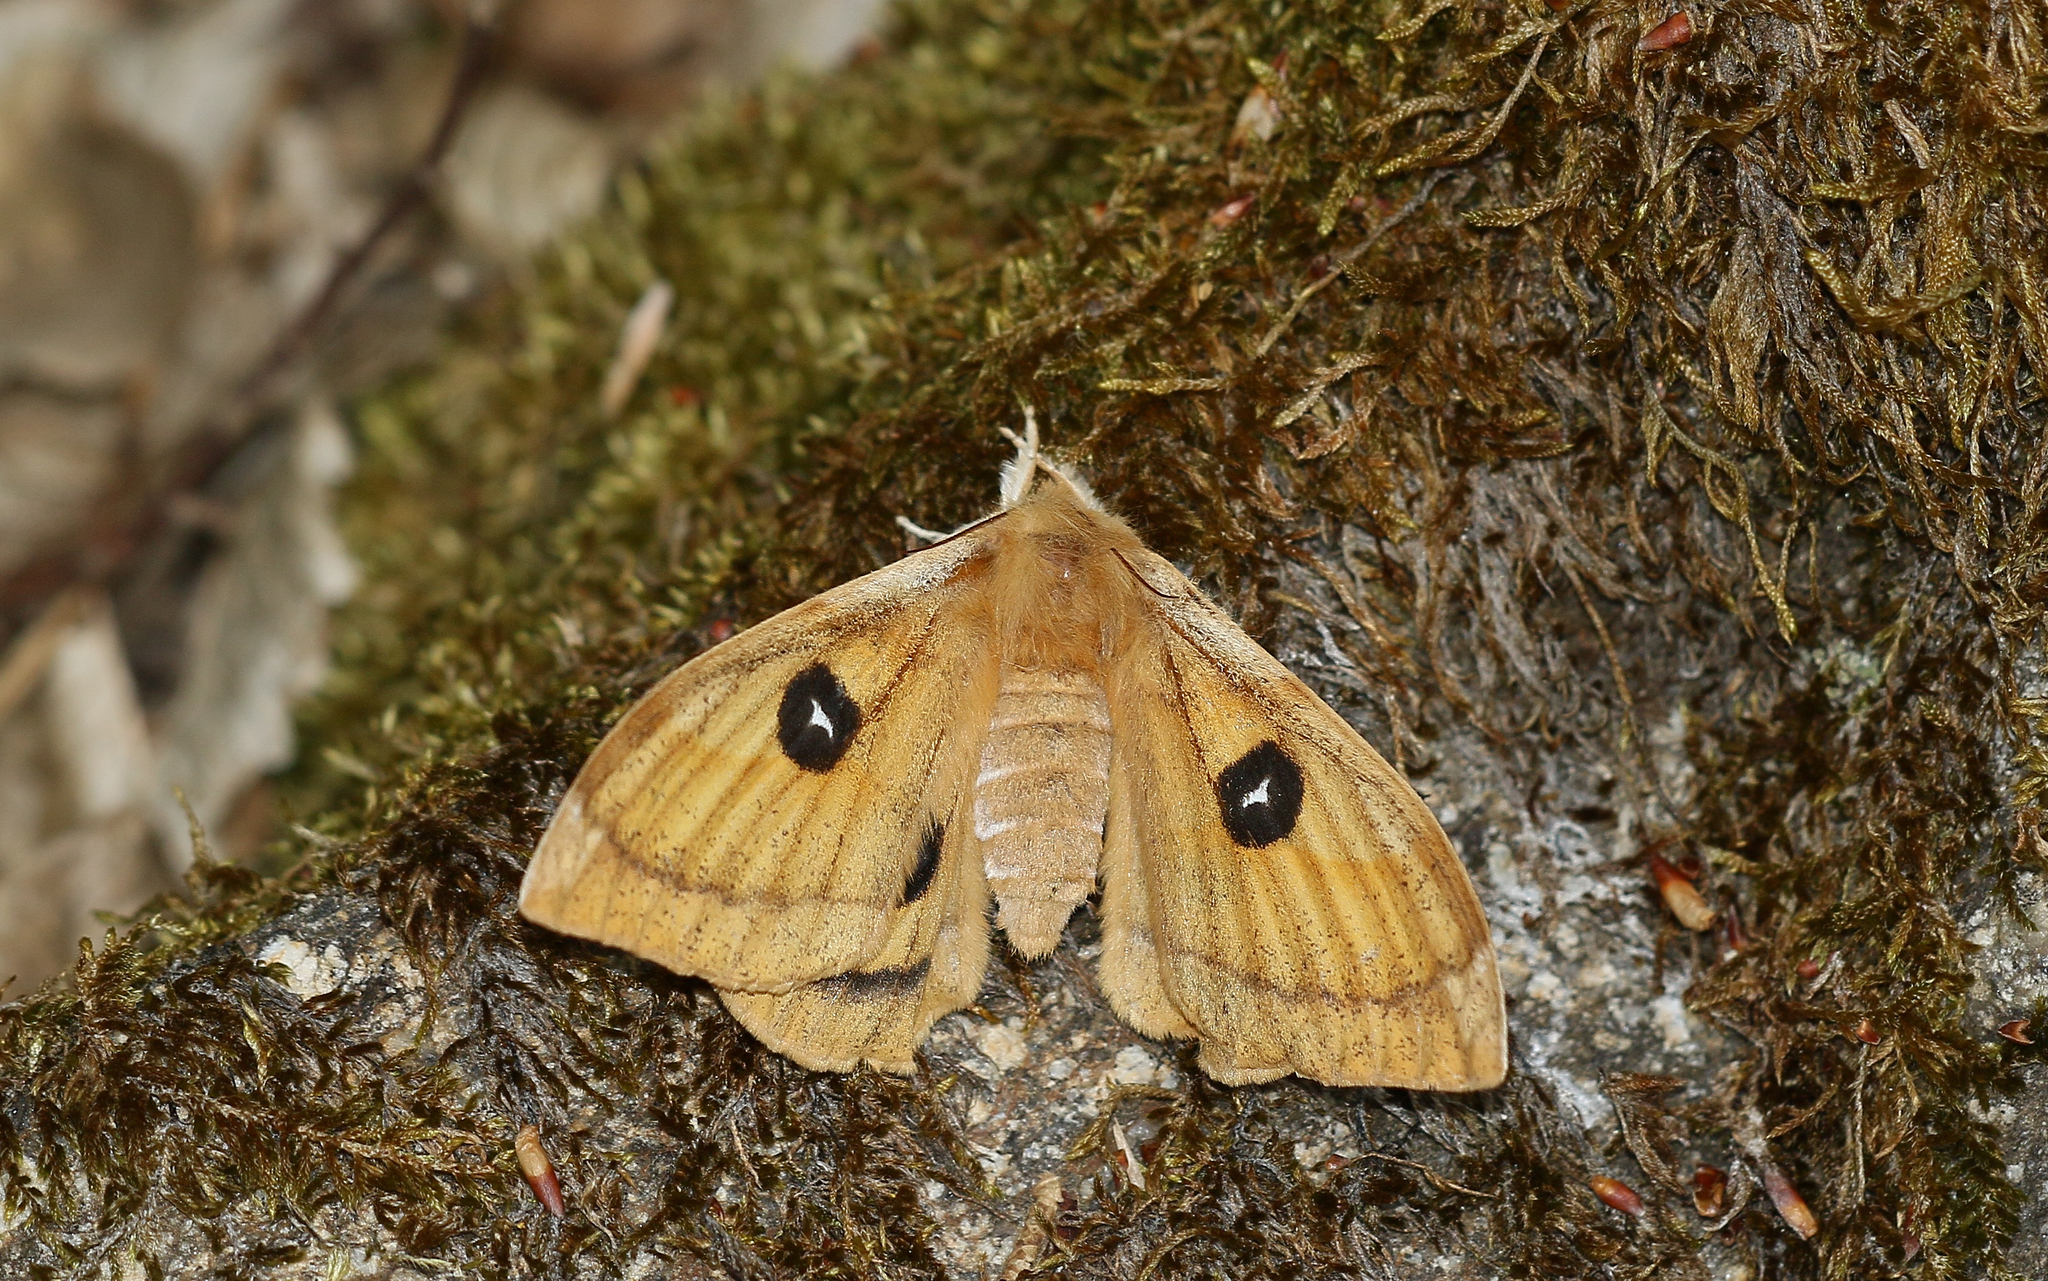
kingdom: Animalia
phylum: Arthropoda
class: Insecta
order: Lepidoptera
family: Saturniidae
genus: Aglia
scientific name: Aglia tau
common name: Tau emperor
